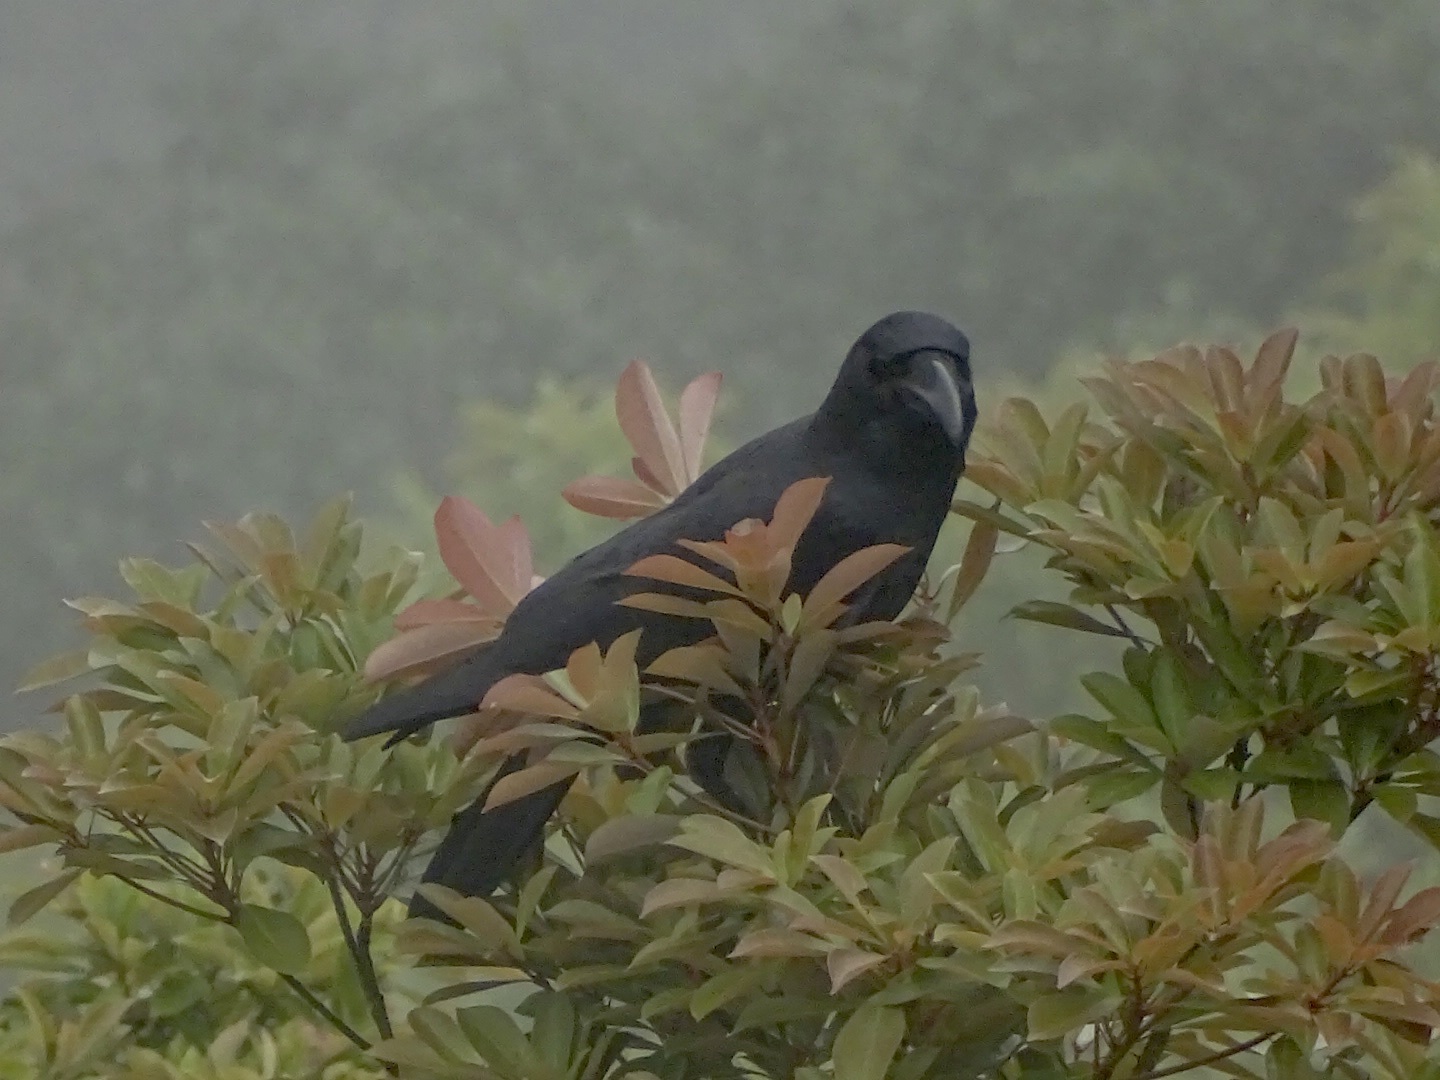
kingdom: Animalia
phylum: Chordata
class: Aves
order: Passeriformes
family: Corvidae
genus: Corvus
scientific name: Corvus macrorhynchos
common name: Large-billed crow
